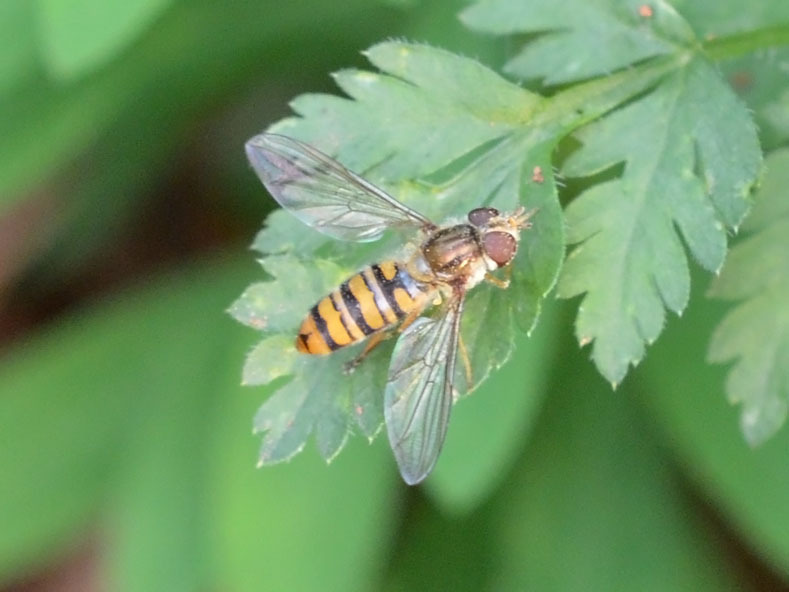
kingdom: Animalia
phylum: Arthropoda
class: Insecta
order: Diptera
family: Syrphidae
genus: Episyrphus
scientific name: Episyrphus balteatus
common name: Marmalade hoverfly
